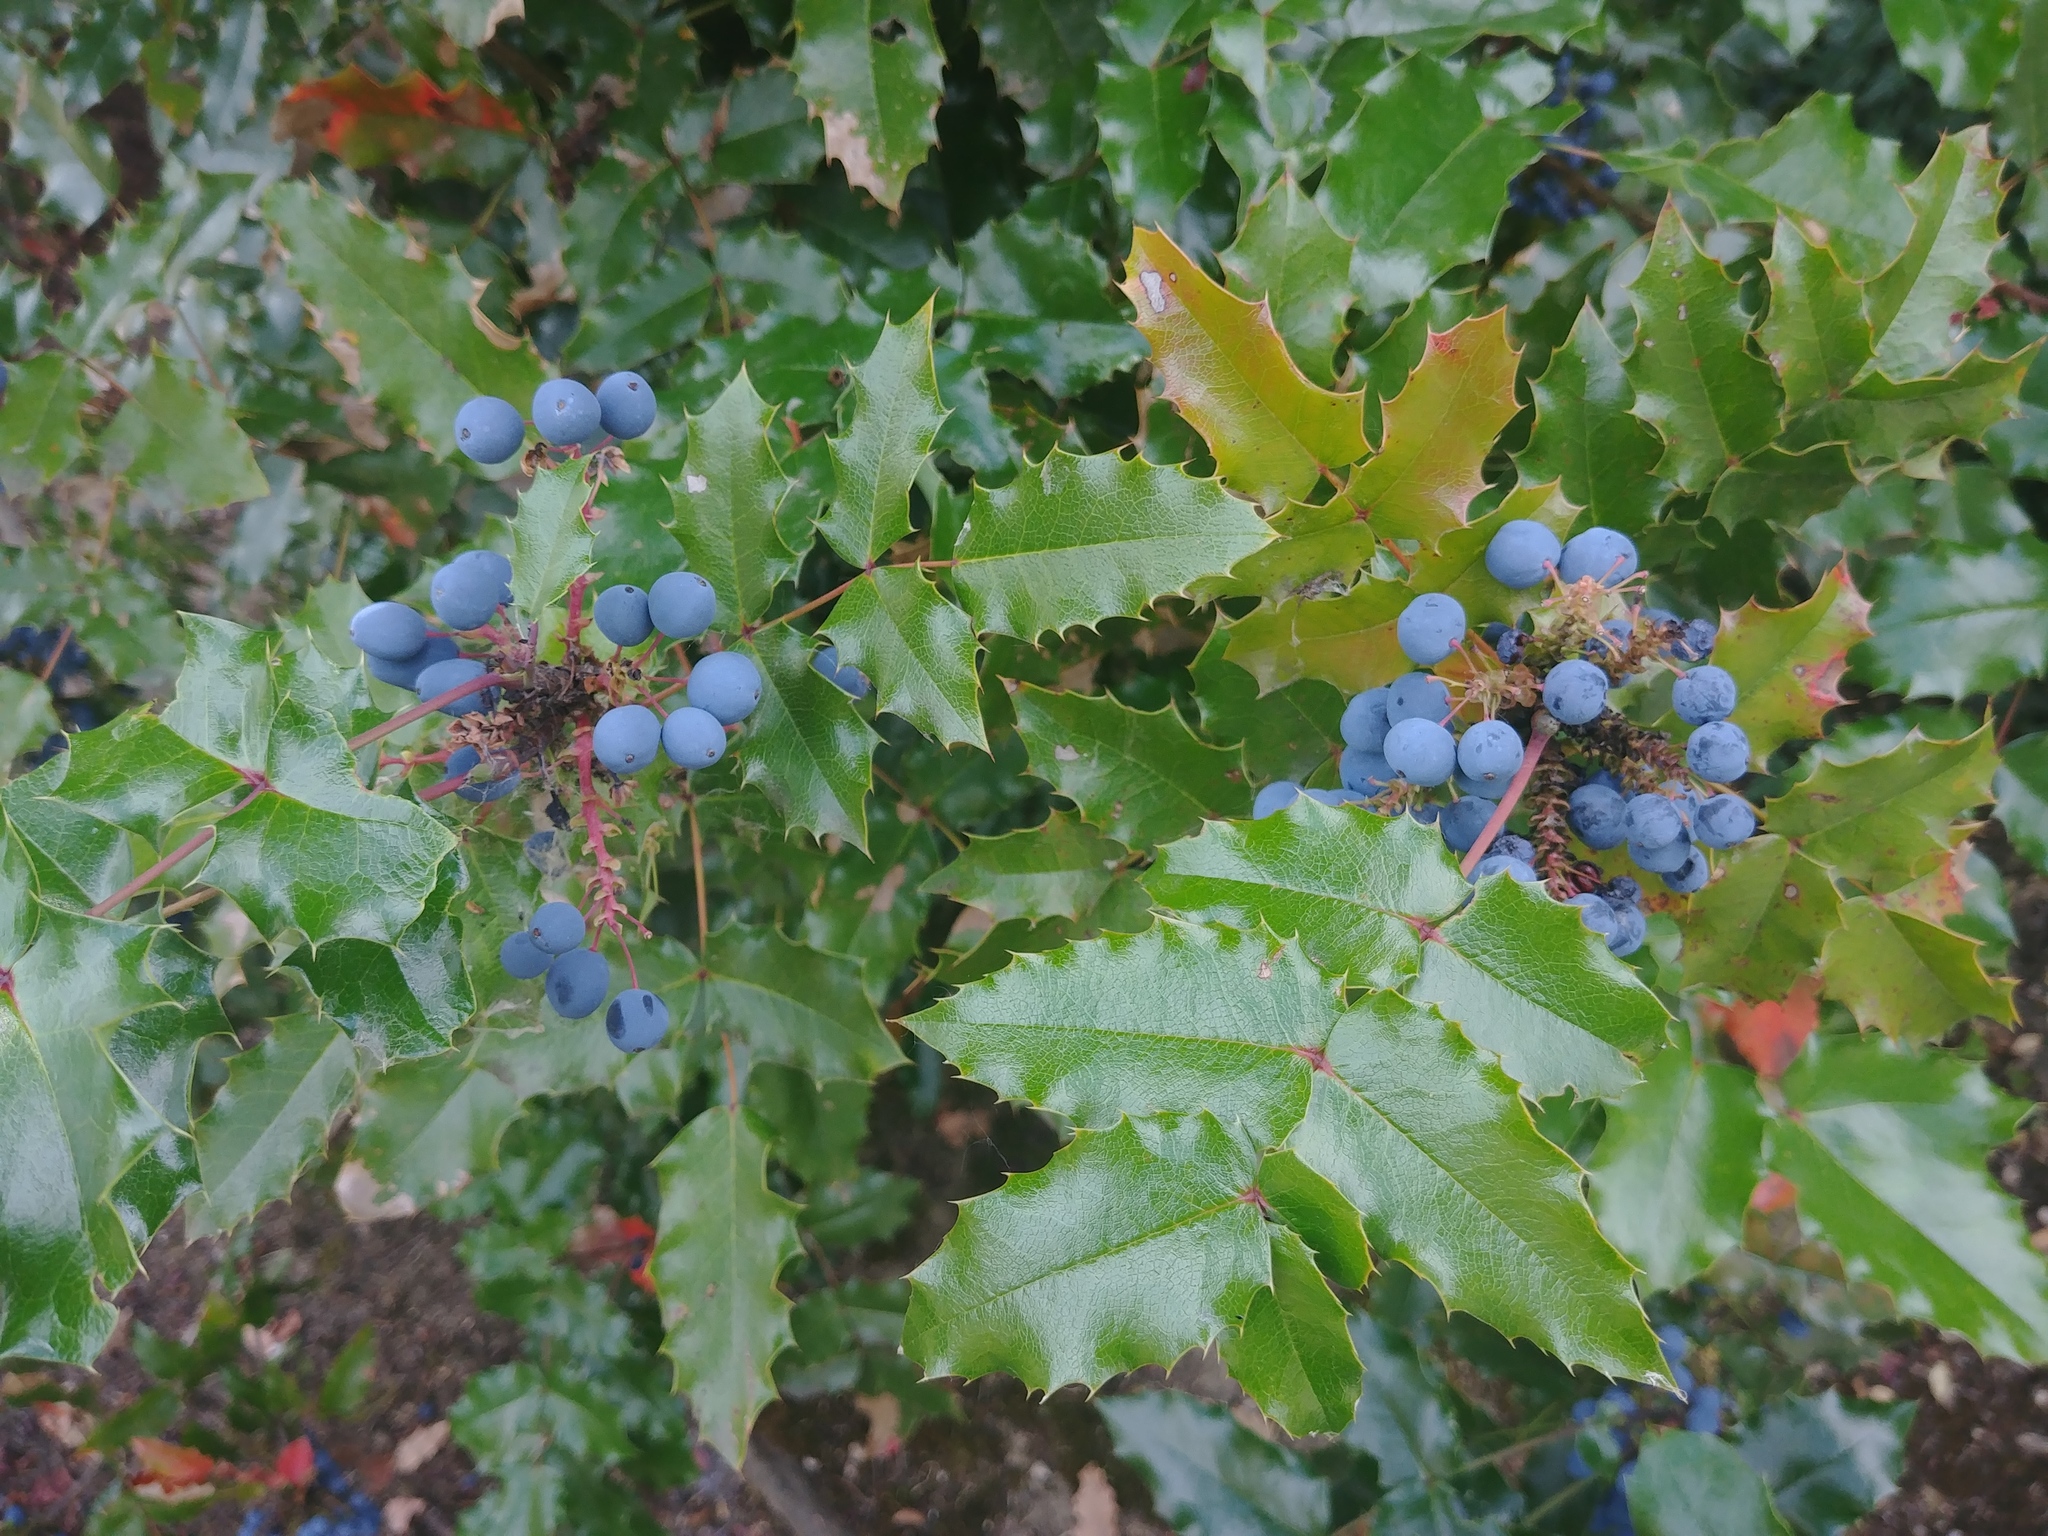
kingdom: Plantae
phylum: Tracheophyta
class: Magnoliopsida
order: Ranunculales
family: Berberidaceae
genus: Mahonia
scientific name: Mahonia aquifolium
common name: Oregon-grape
